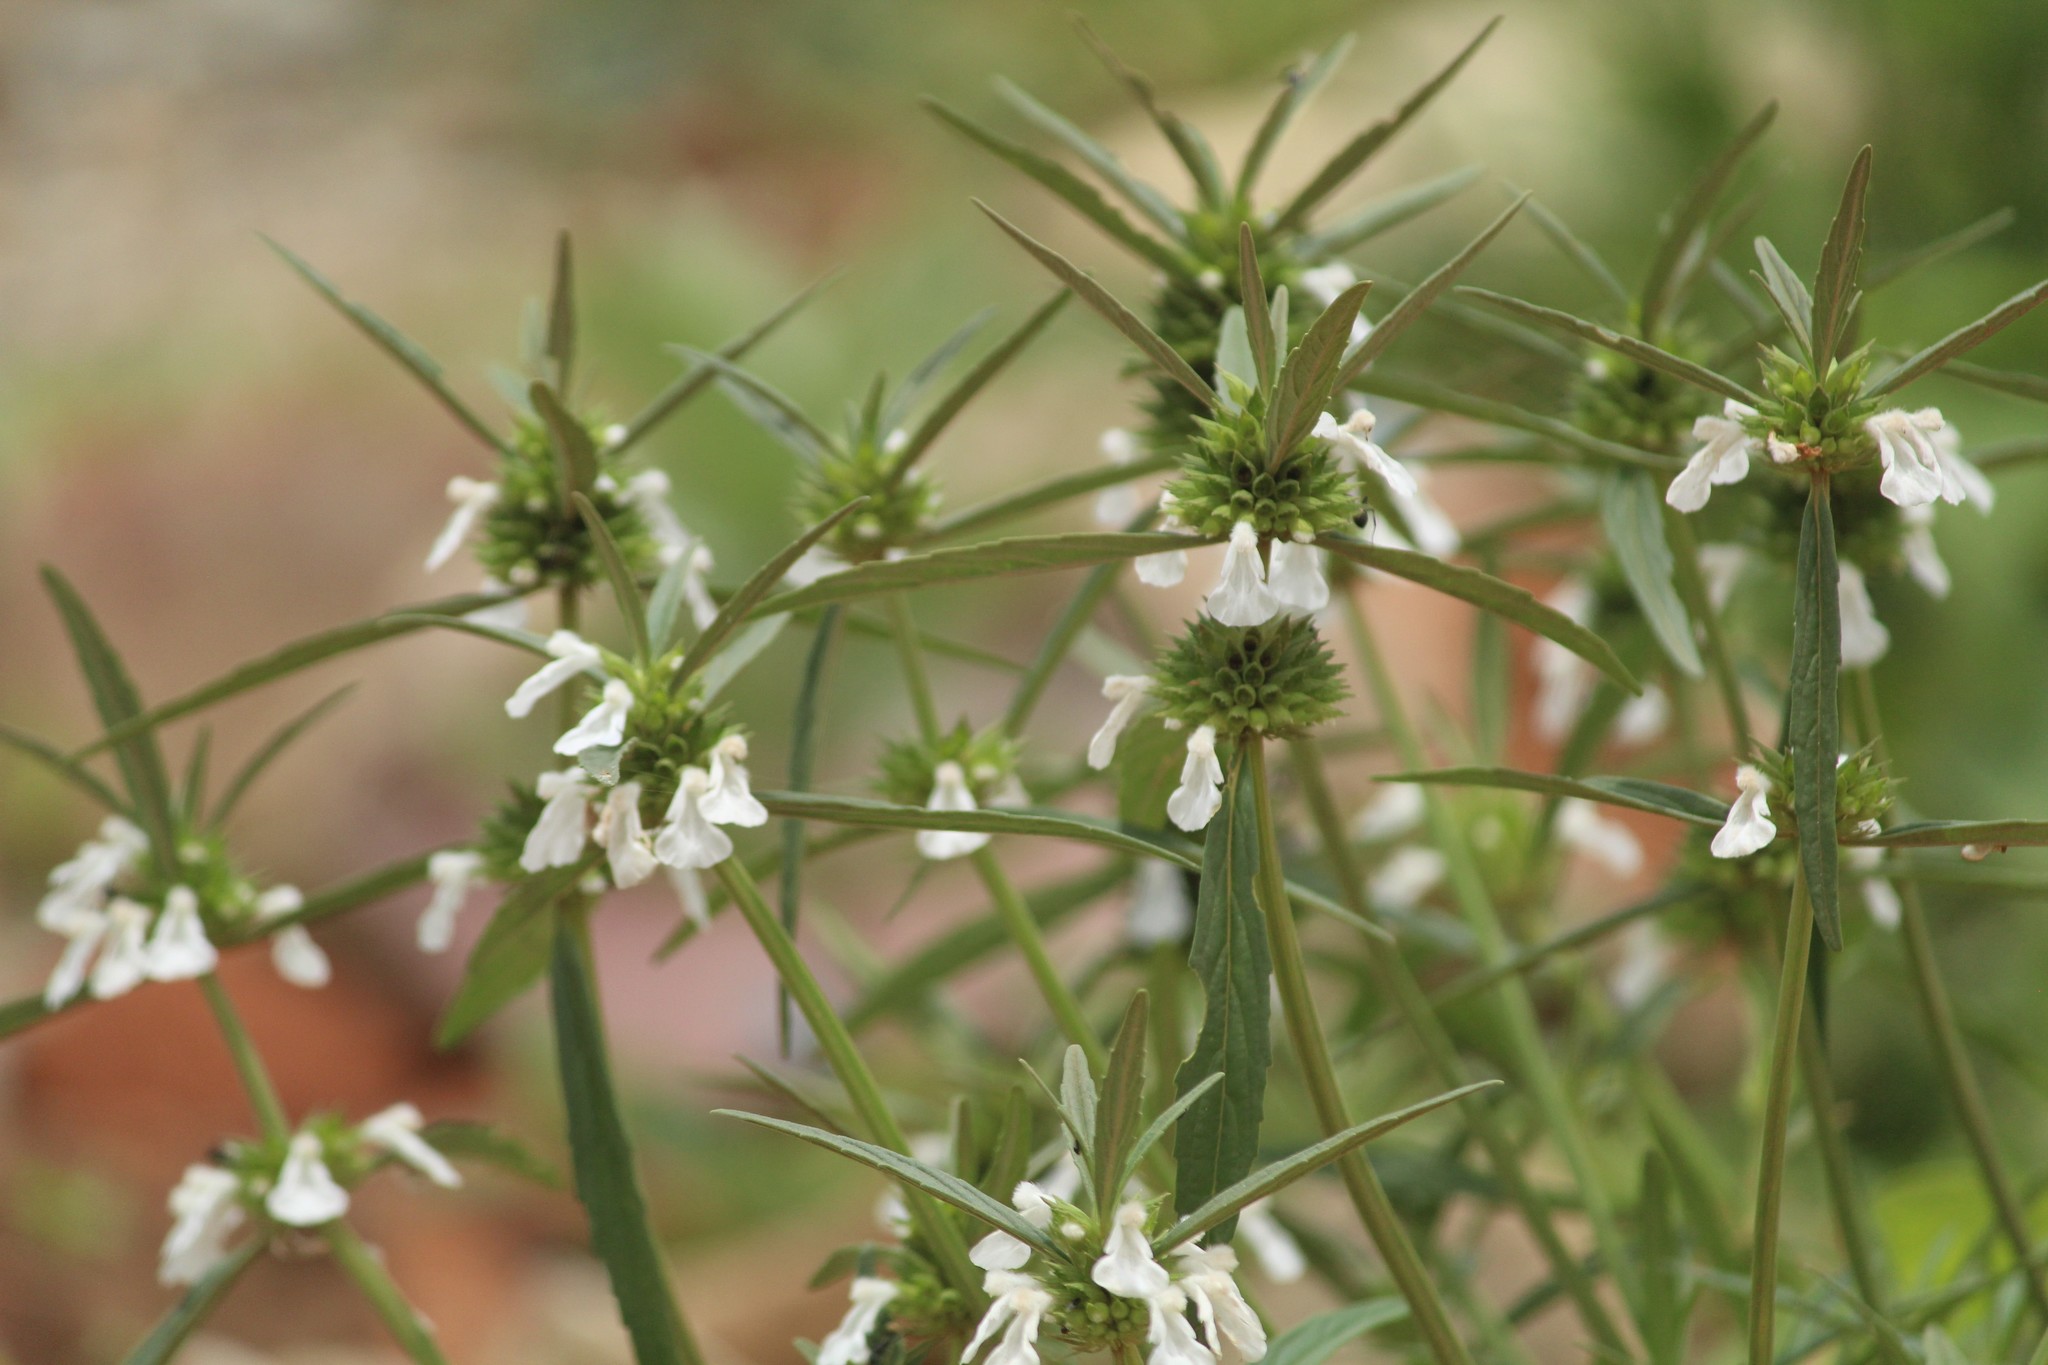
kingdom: Plantae
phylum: Tracheophyta
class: Magnoliopsida
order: Lamiales
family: Lamiaceae
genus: Leucas
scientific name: Leucas aspera
